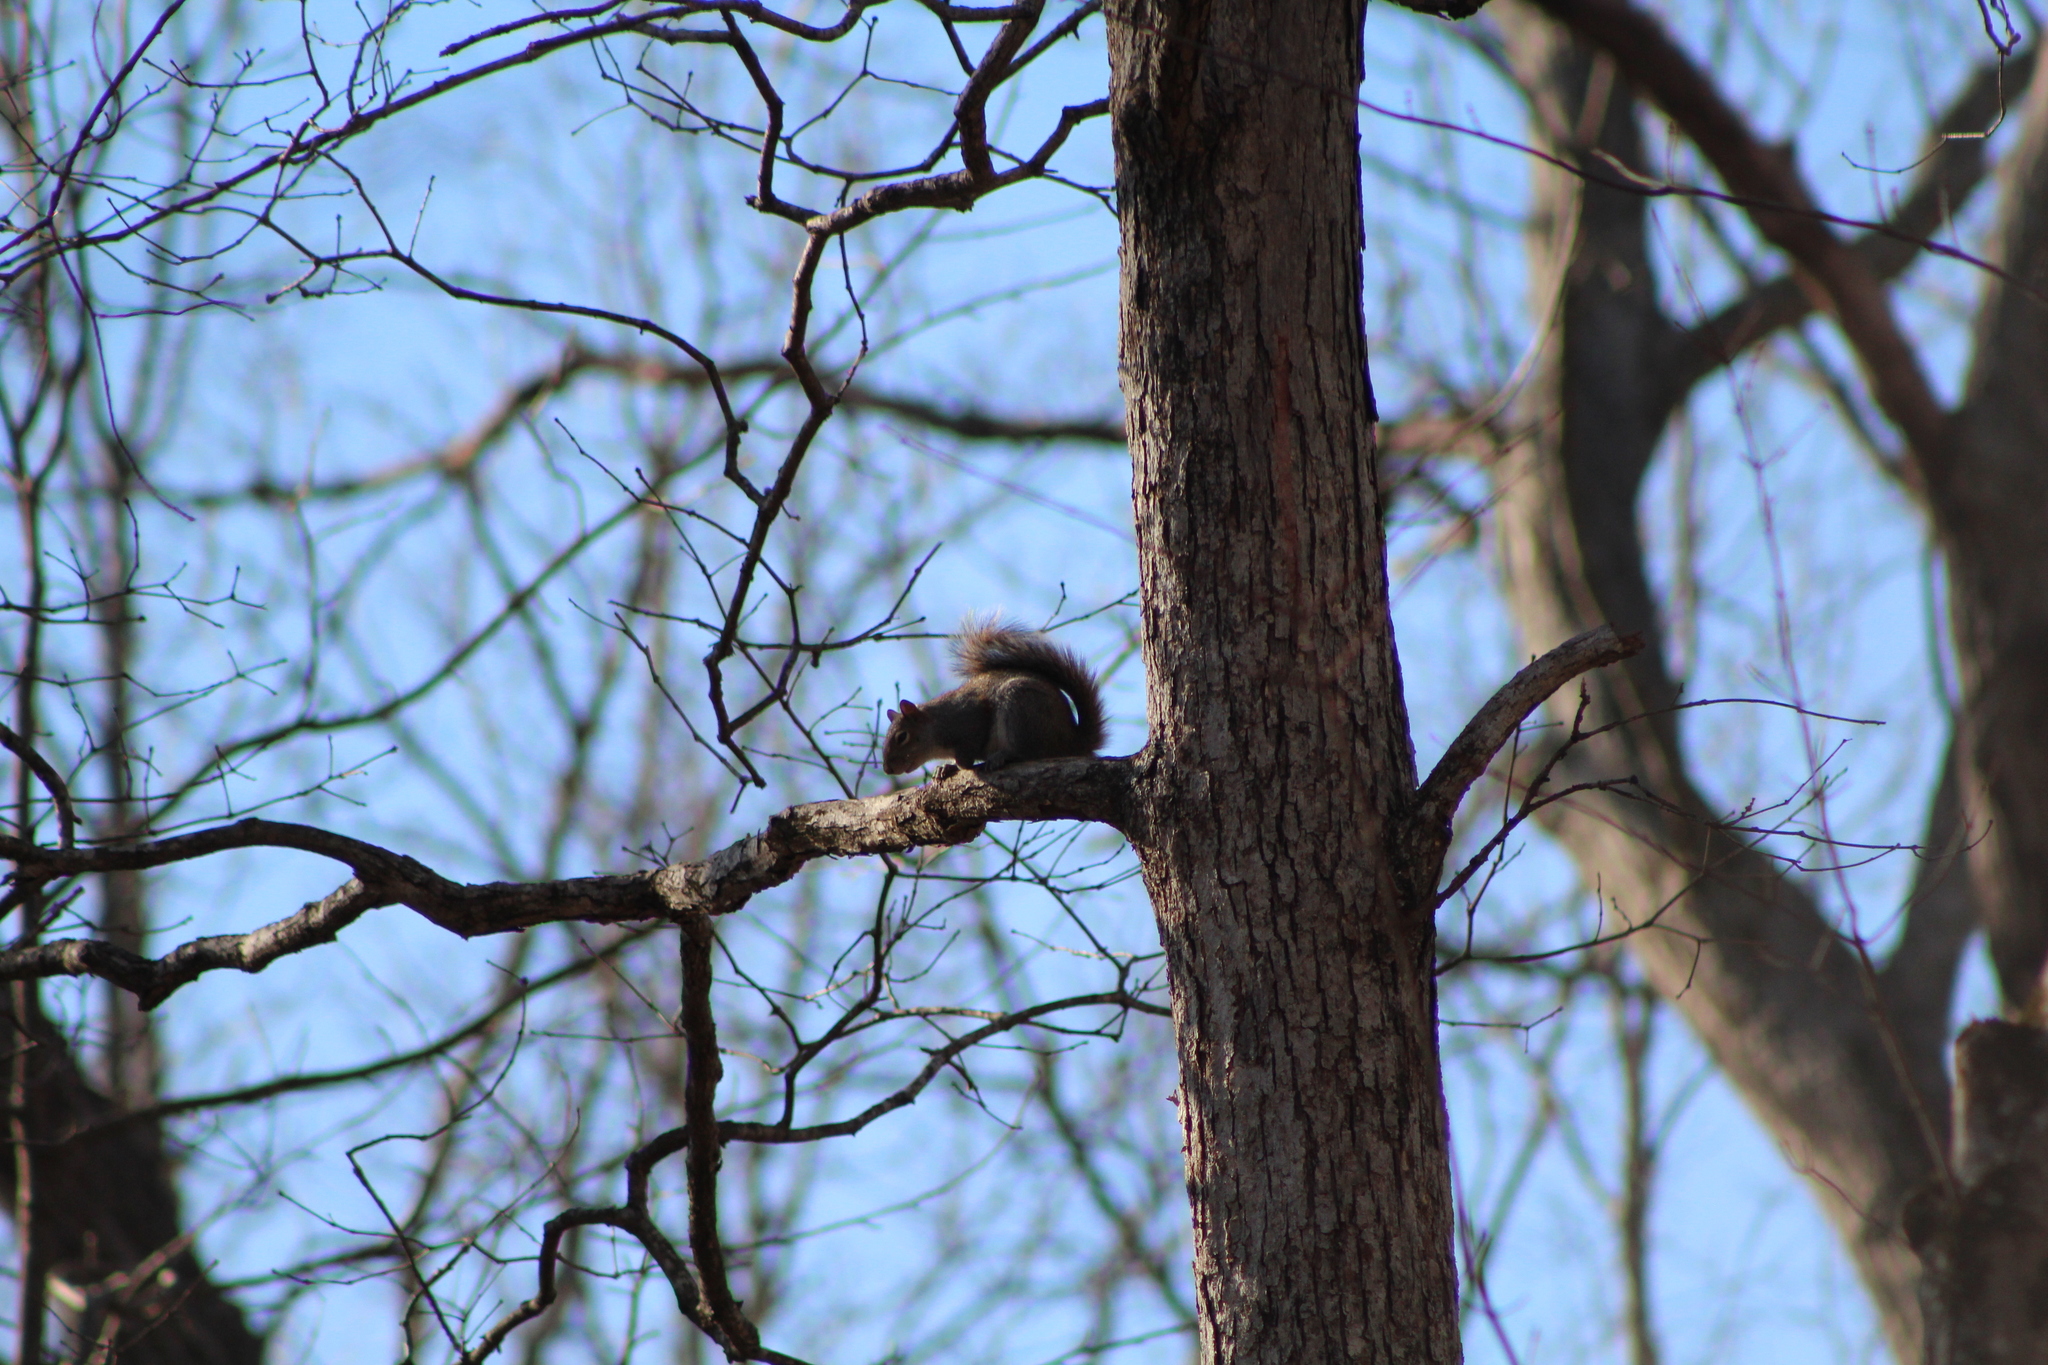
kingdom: Animalia
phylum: Chordata
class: Mammalia
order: Rodentia
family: Sciuridae
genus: Sciurus
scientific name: Sciurus carolinensis
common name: Eastern gray squirrel
